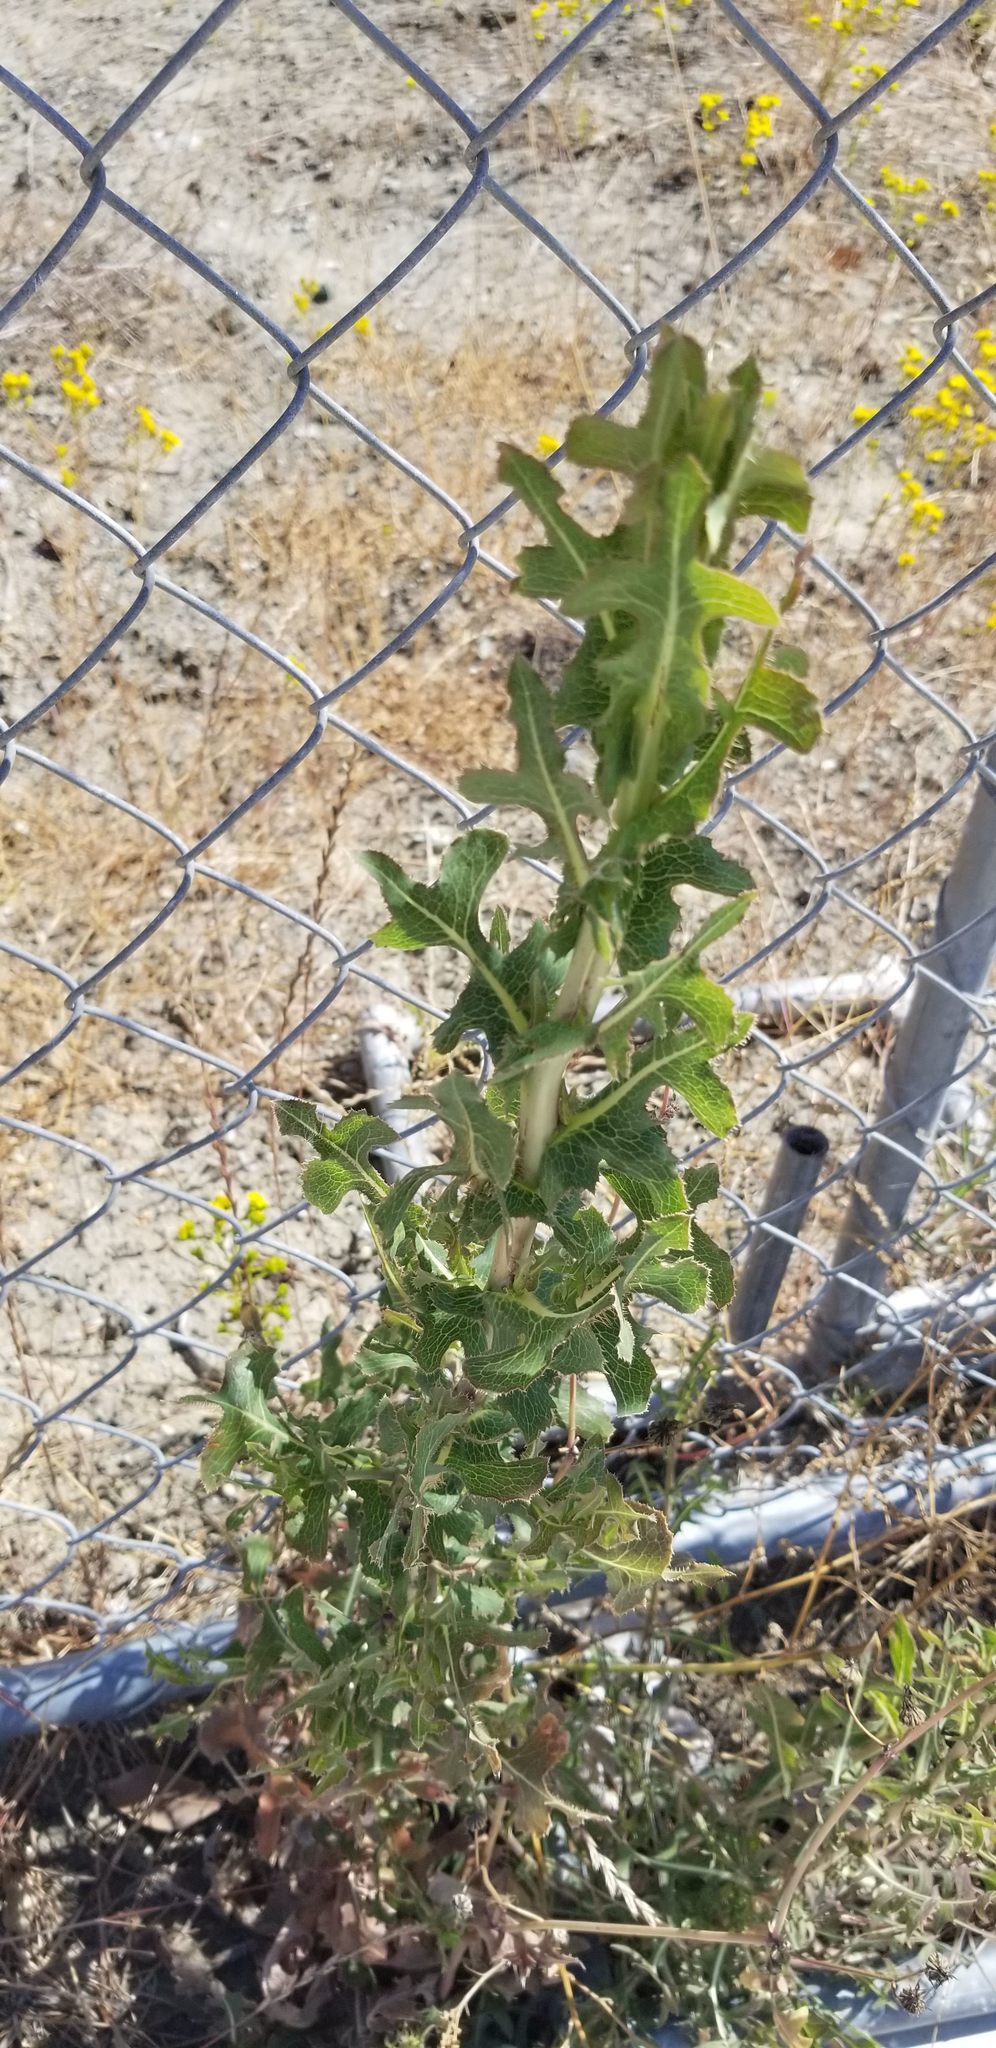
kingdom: Plantae
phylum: Tracheophyta
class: Magnoliopsida
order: Asterales
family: Asteraceae
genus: Lactuca
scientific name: Lactuca serriola
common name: Prickly lettuce
